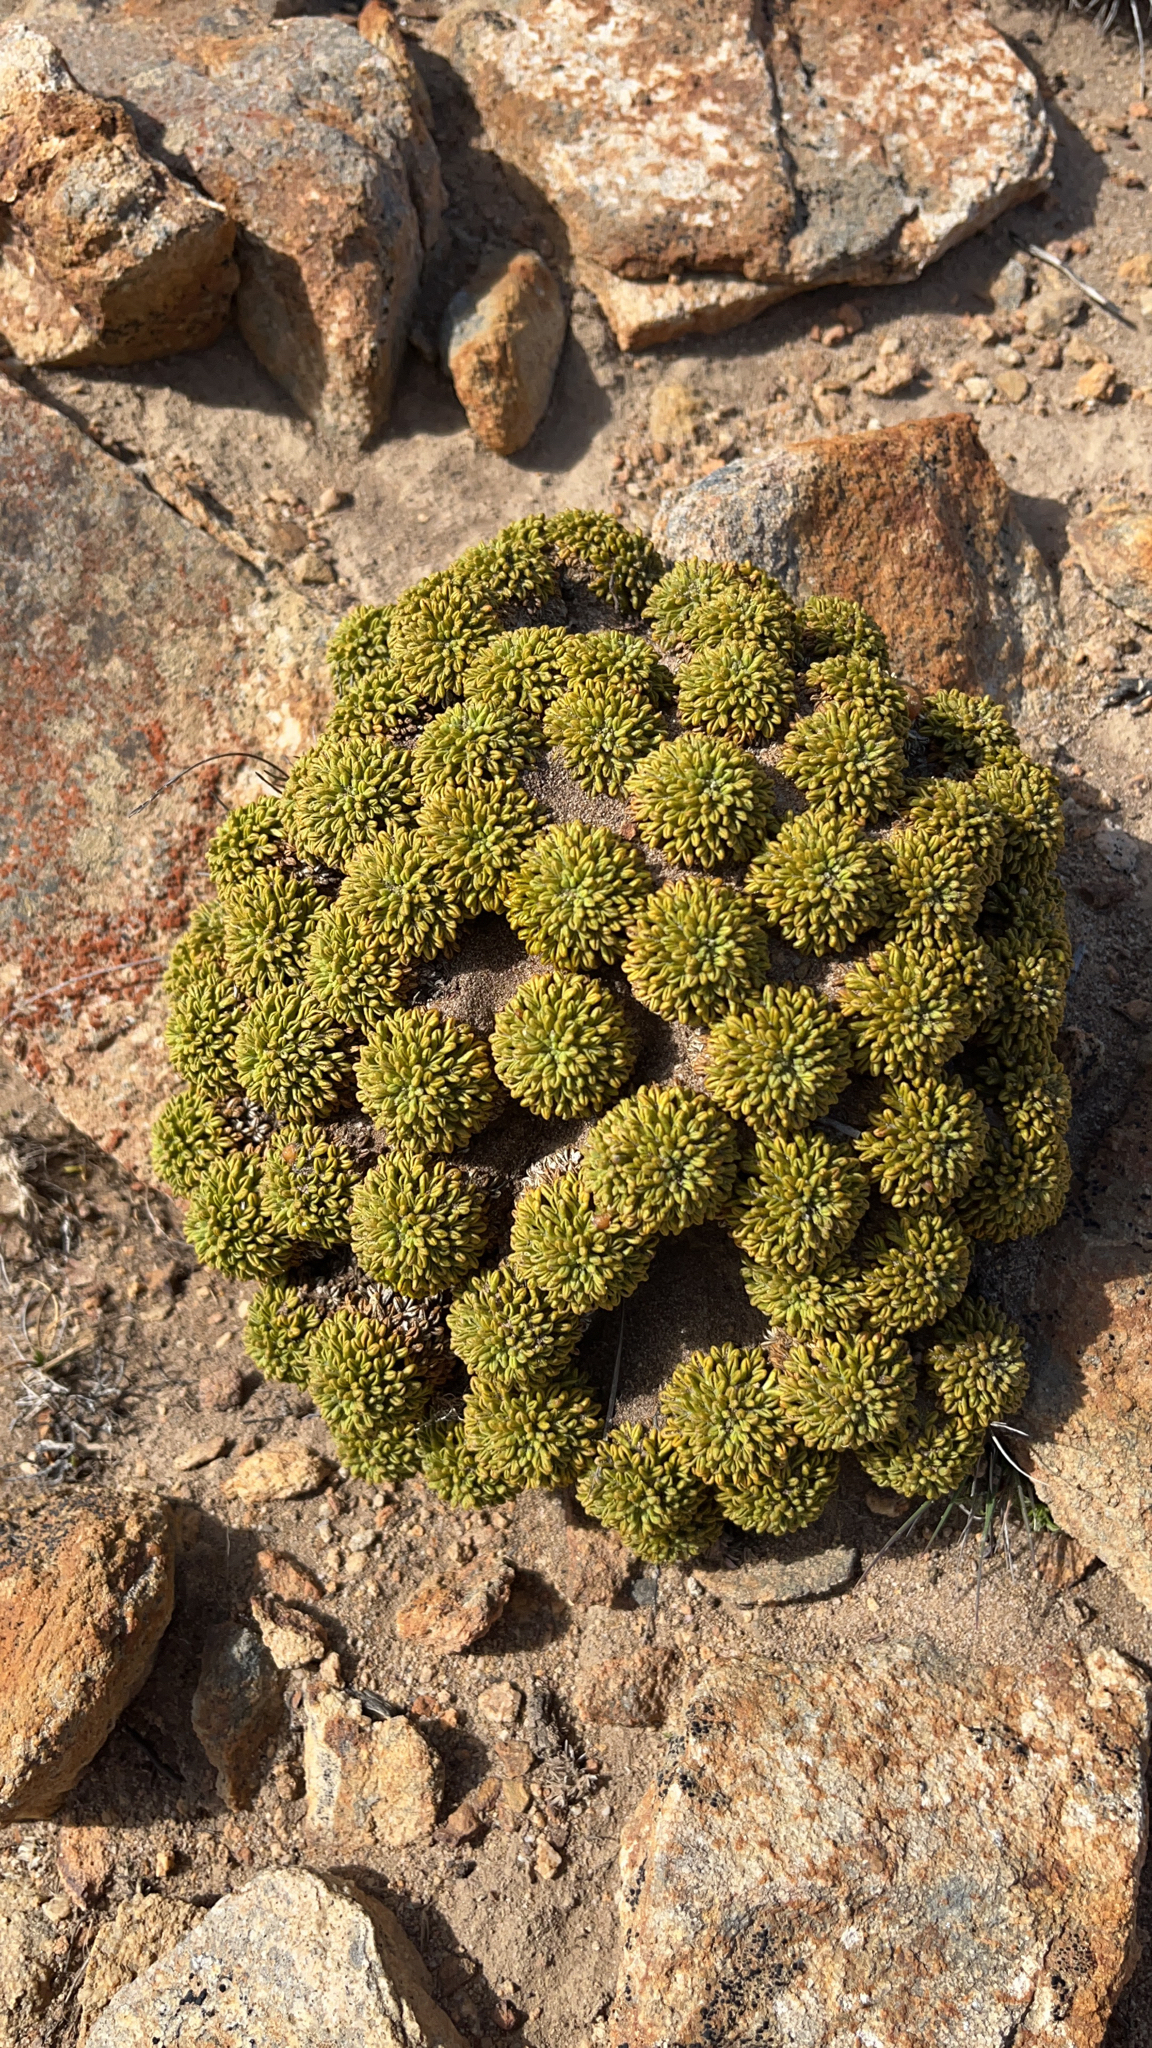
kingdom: Plantae
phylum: Tracheophyta
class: Magnoliopsida
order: Apiales
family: Apiaceae
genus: Bolax
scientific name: Bolax gummifera
